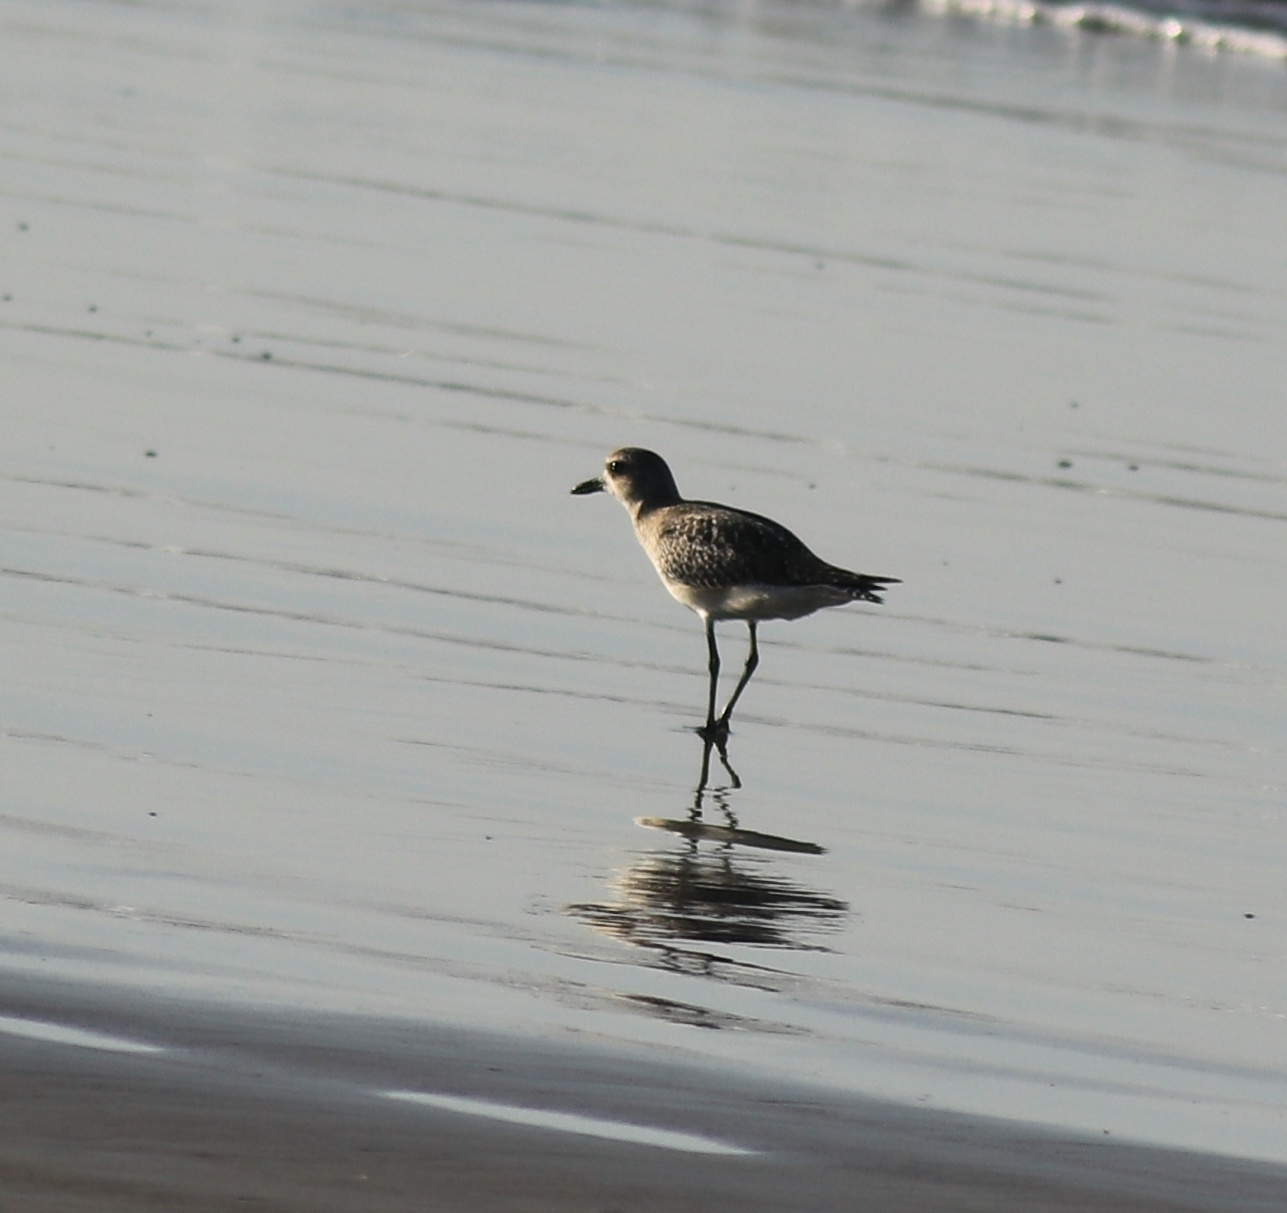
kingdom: Animalia
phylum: Chordata
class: Aves
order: Charadriiformes
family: Charadriidae
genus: Pluvialis
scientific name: Pluvialis squatarola
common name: Grey plover
